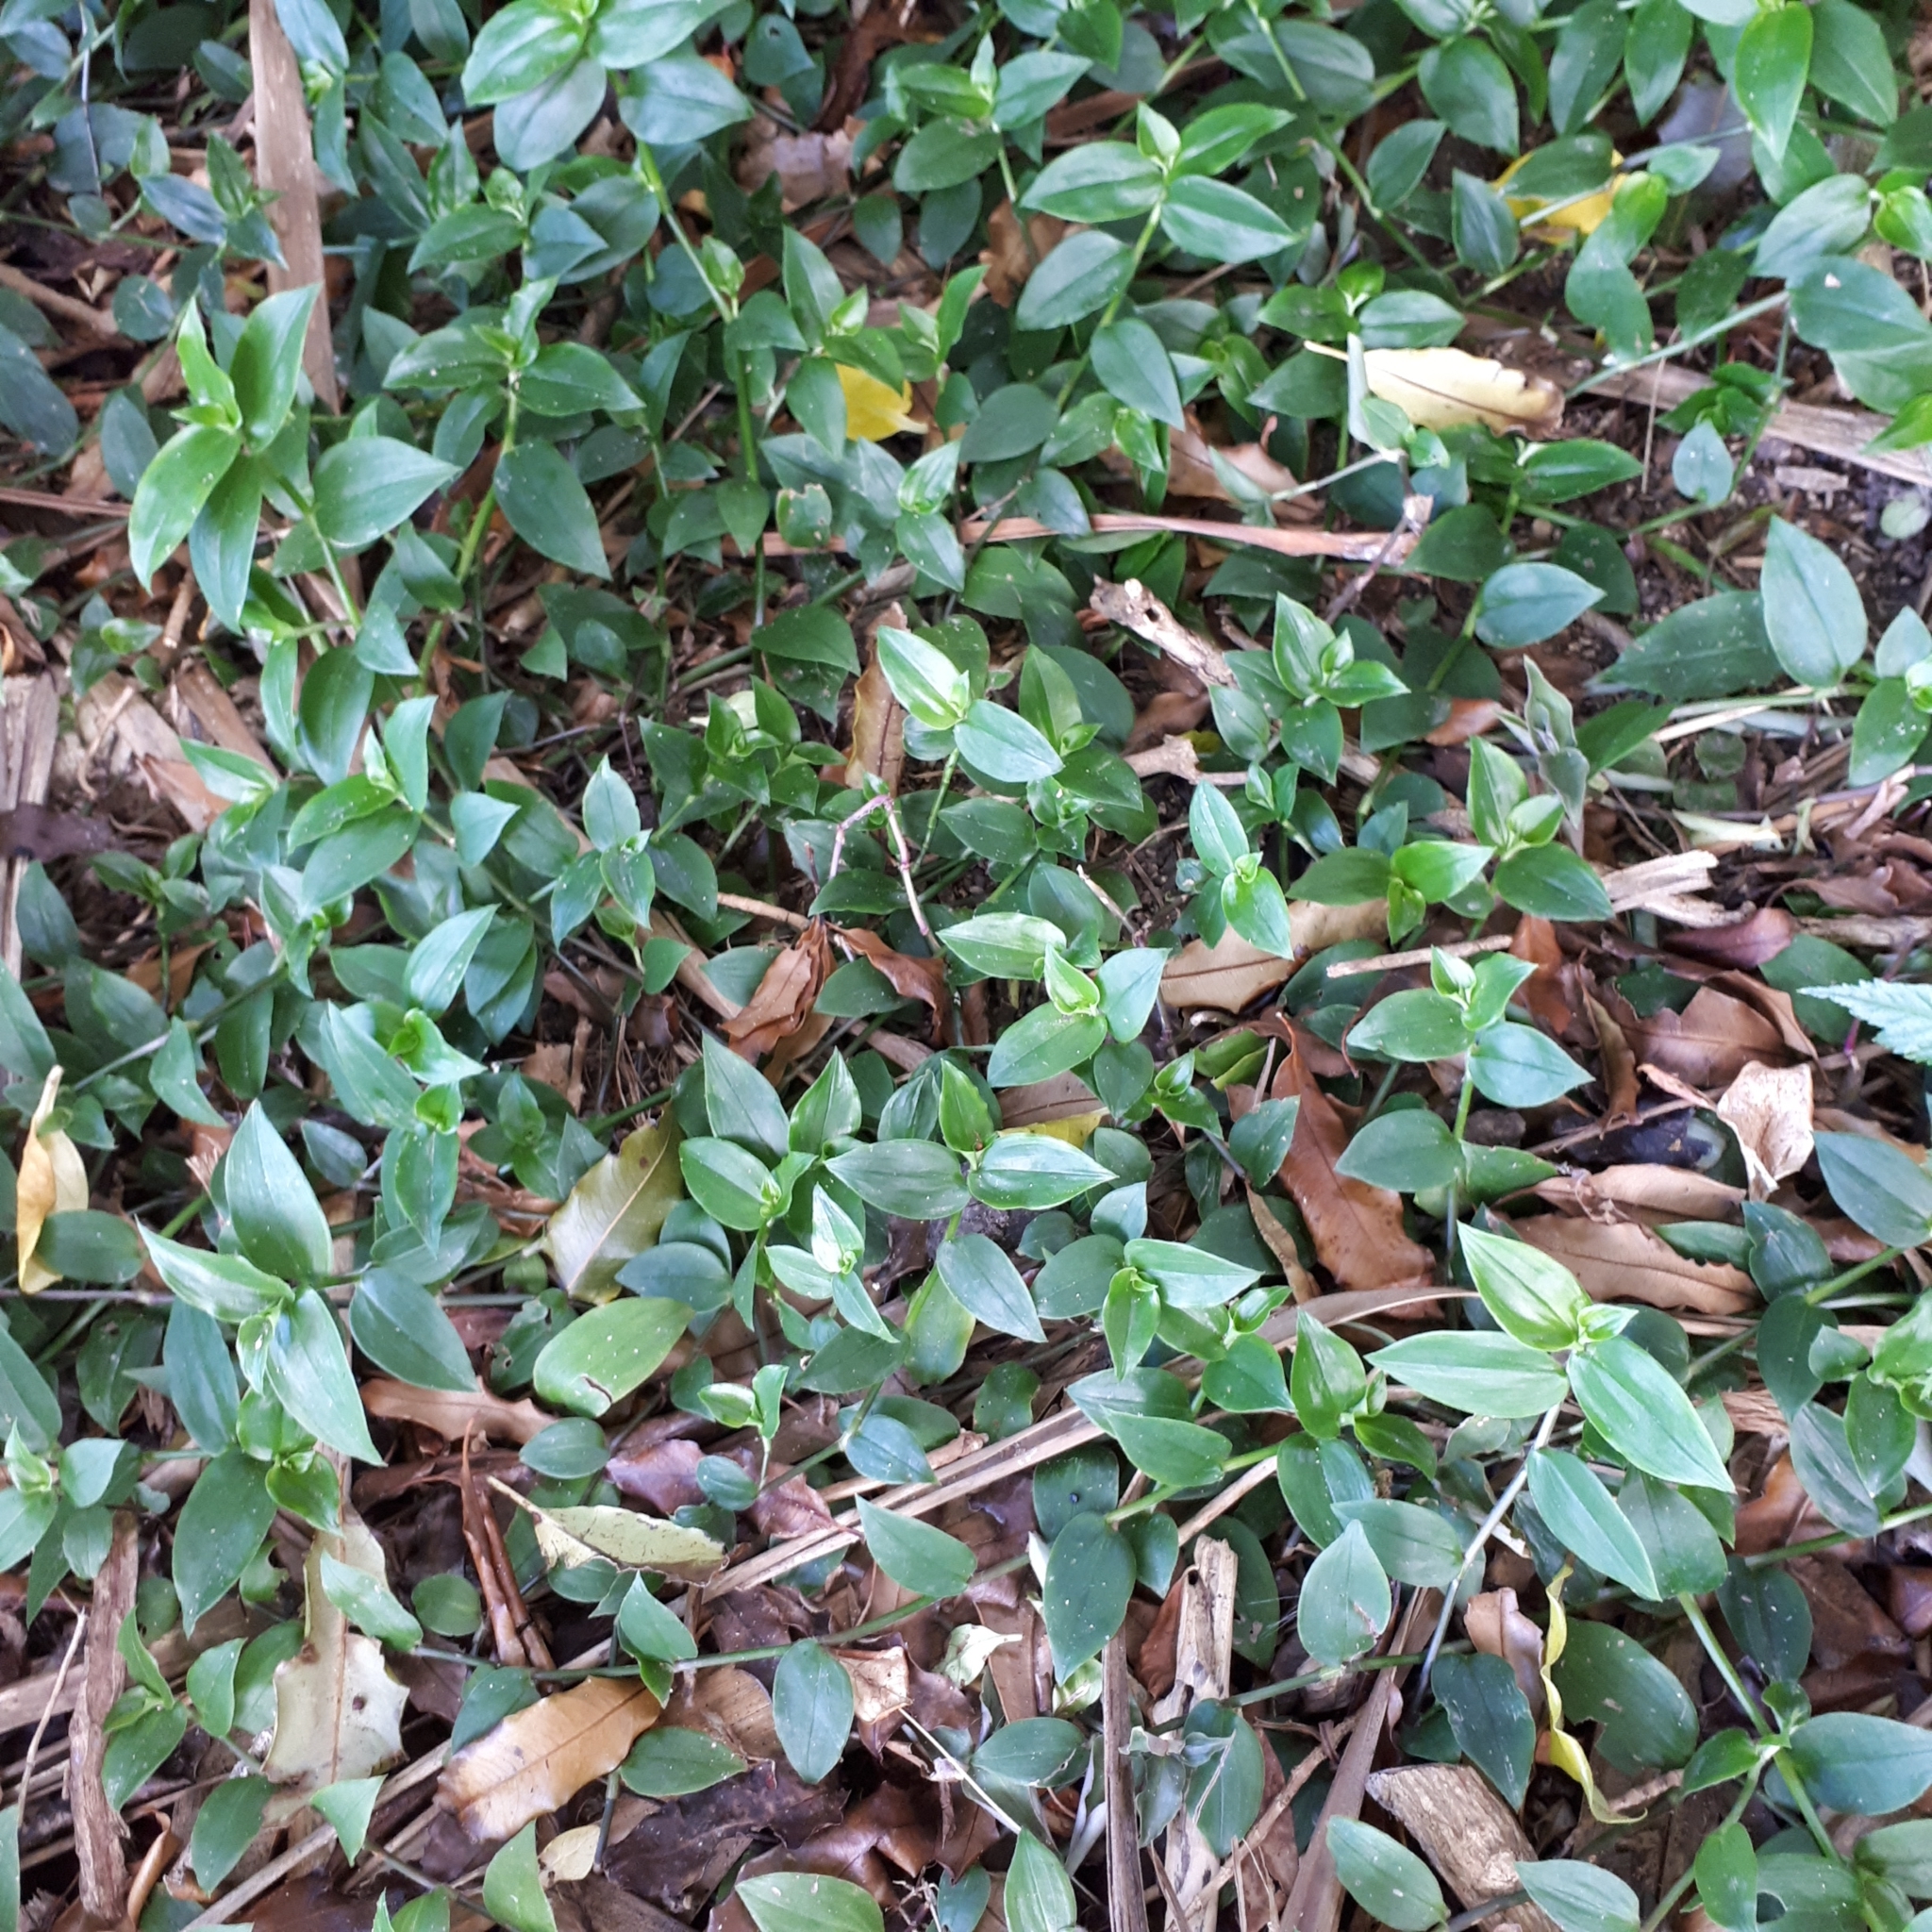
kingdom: Plantae
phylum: Tracheophyta
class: Liliopsida
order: Commelinales
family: Commelinaceae
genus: Tradescantia
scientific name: Tradescantia fluminensis
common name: Wandering-jew
